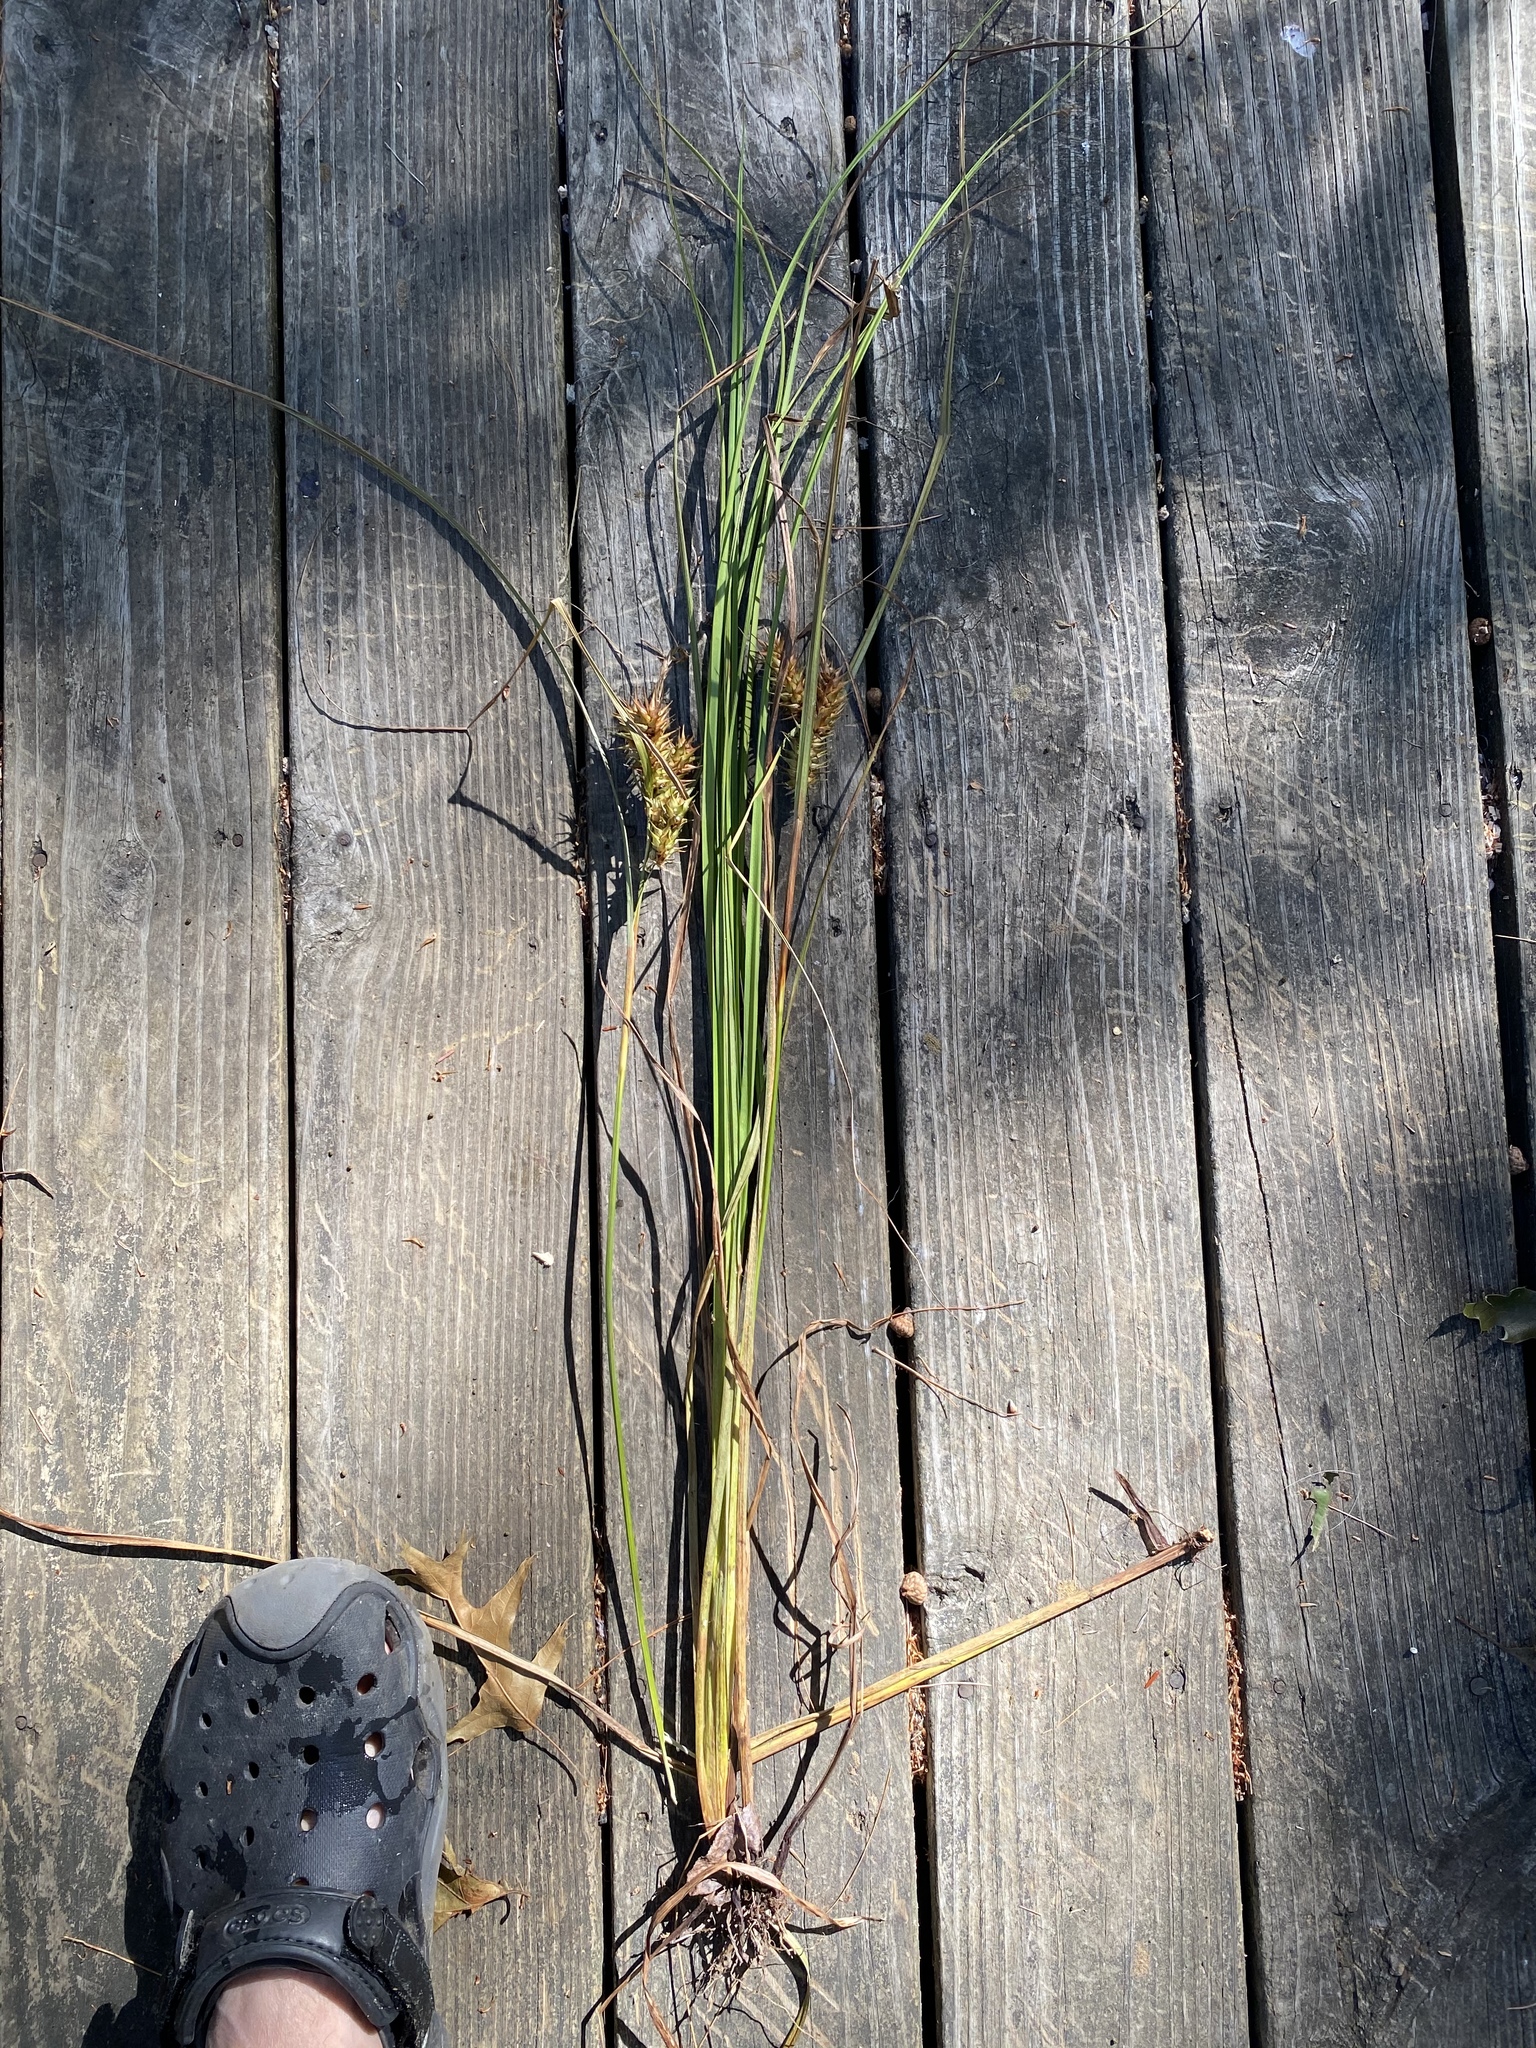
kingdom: Plantae
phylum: Tracheophyta
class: Liliopsida
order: Poales
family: Cyperaceae
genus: Carex
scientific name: Carex lupulina
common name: Hop sedge
